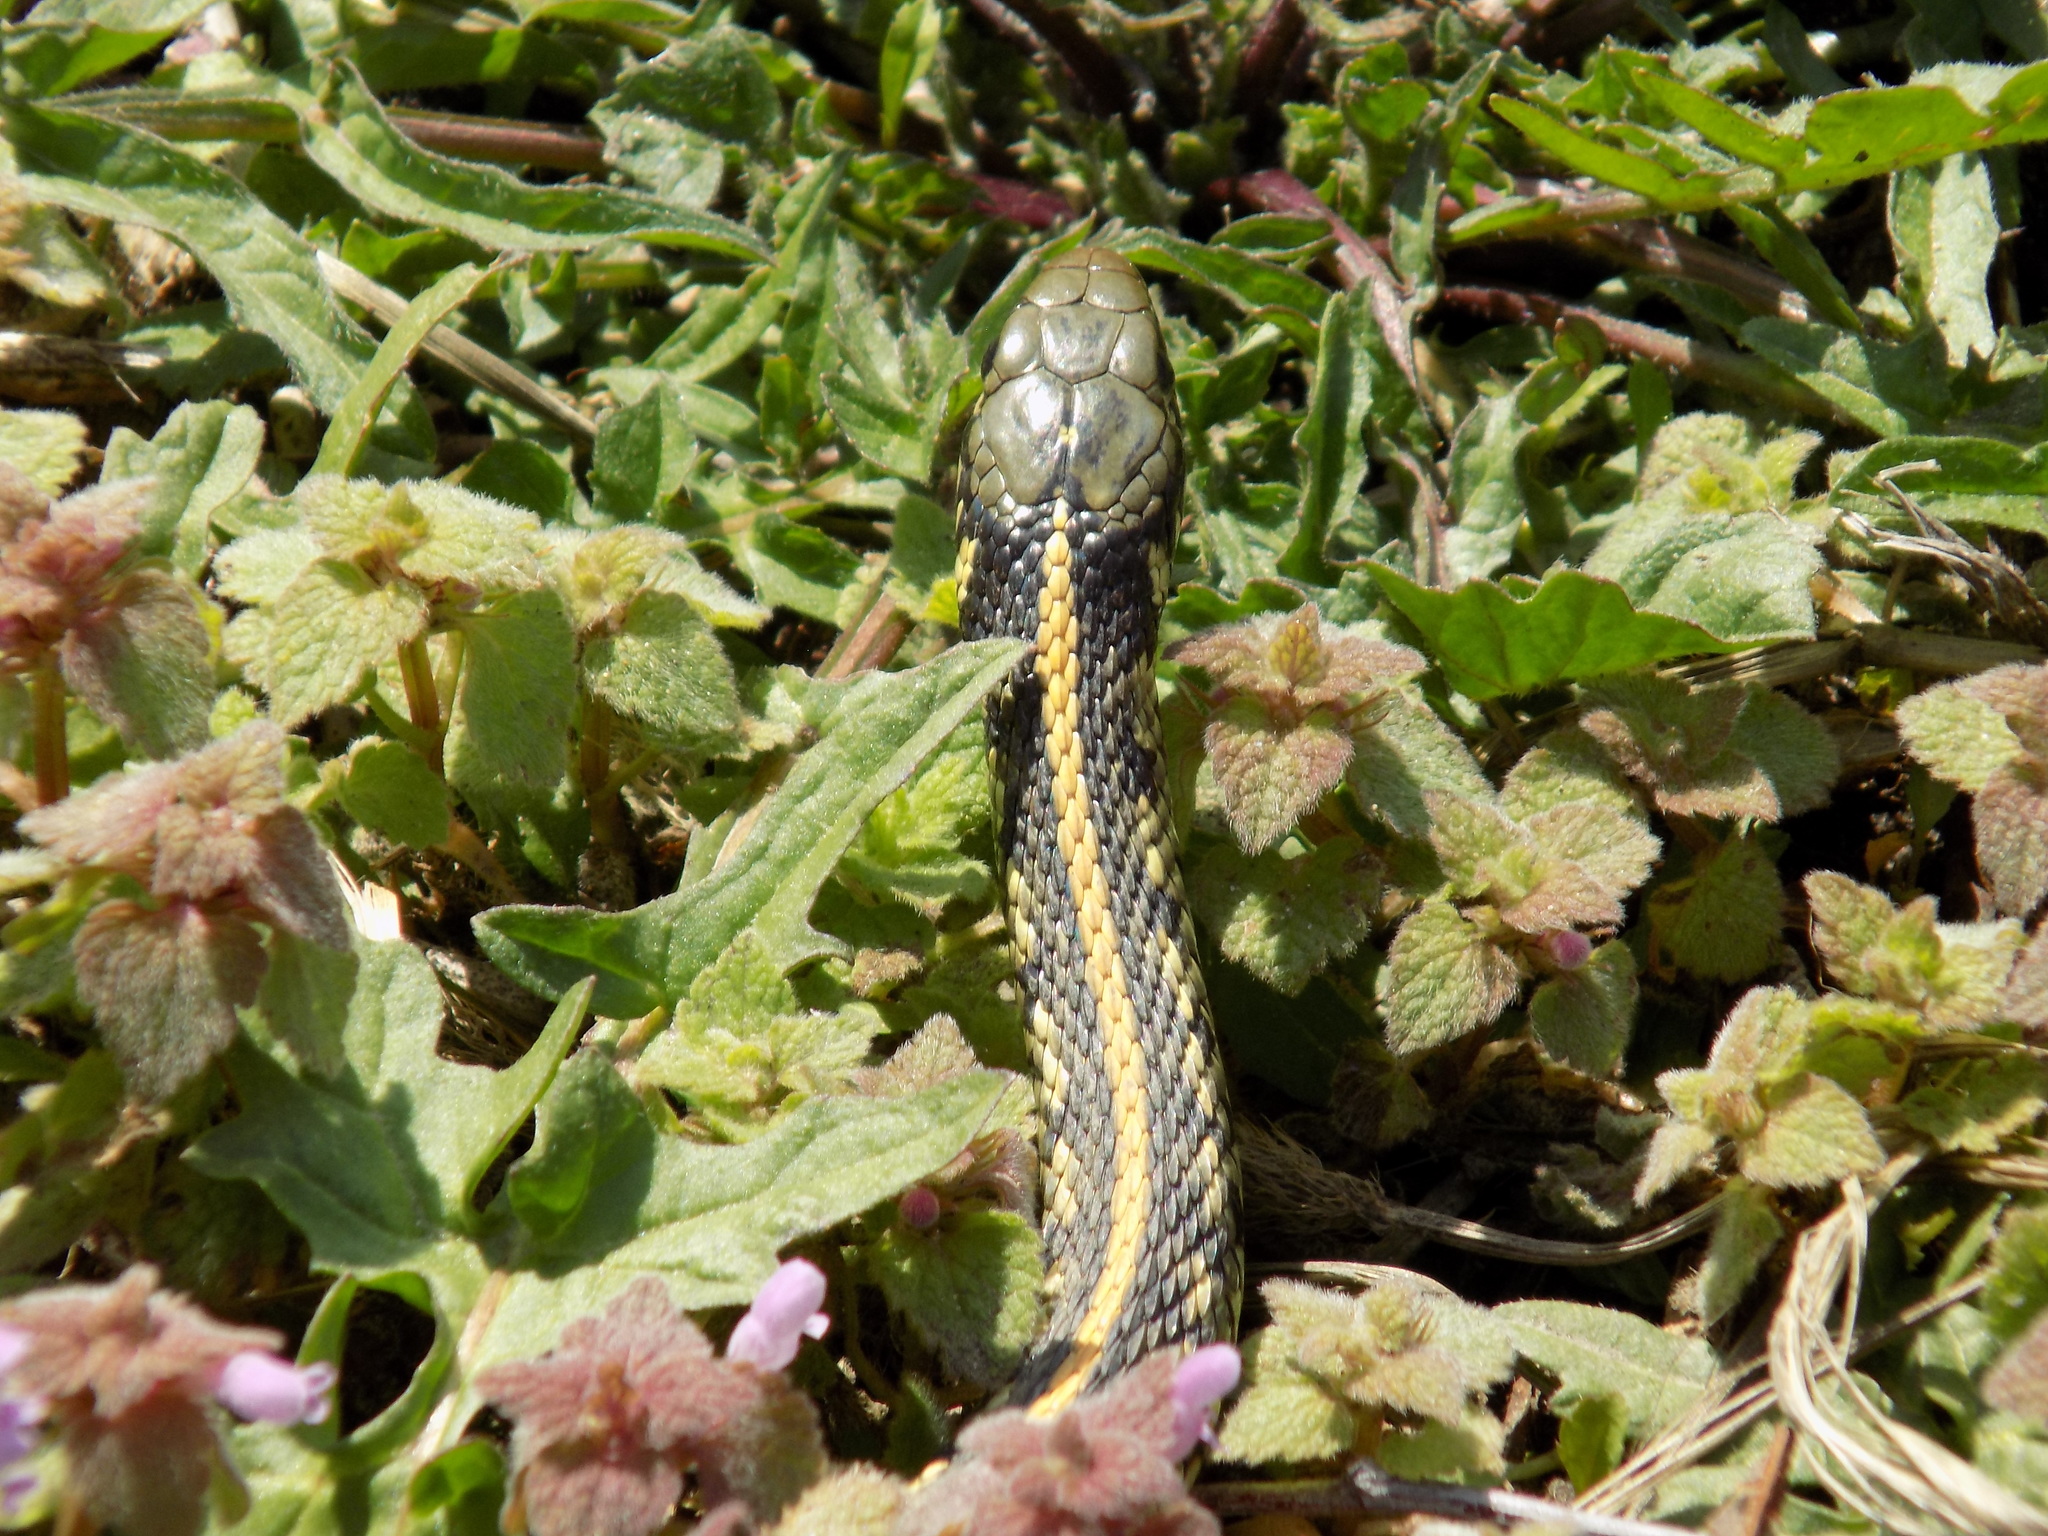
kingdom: Animalia
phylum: Chordata
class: Squamata
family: Colubridae
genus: Thamnophis
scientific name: Thamnophis radix
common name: Plains garter snake
